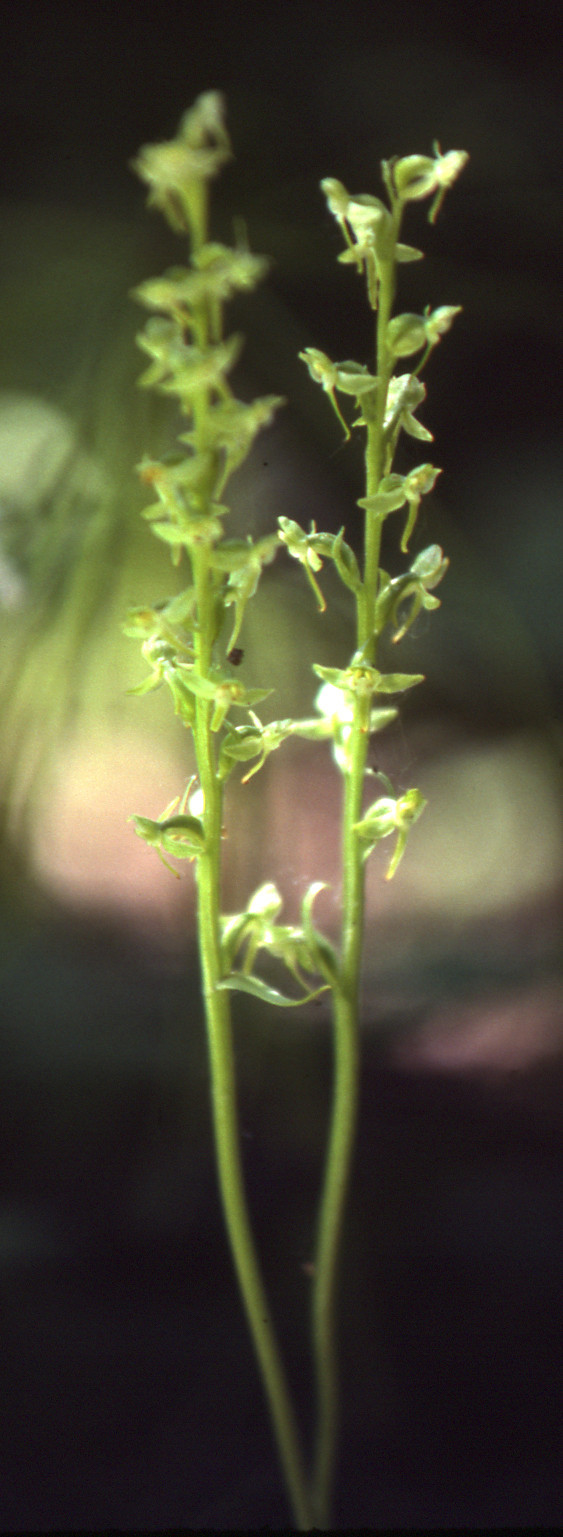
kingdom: Plantae
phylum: Tracheophyta
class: Liliopsida
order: Asparagales
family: Orchidaceae
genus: Platanthera
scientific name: Platanthera obtusata
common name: Blunt bog orchid
